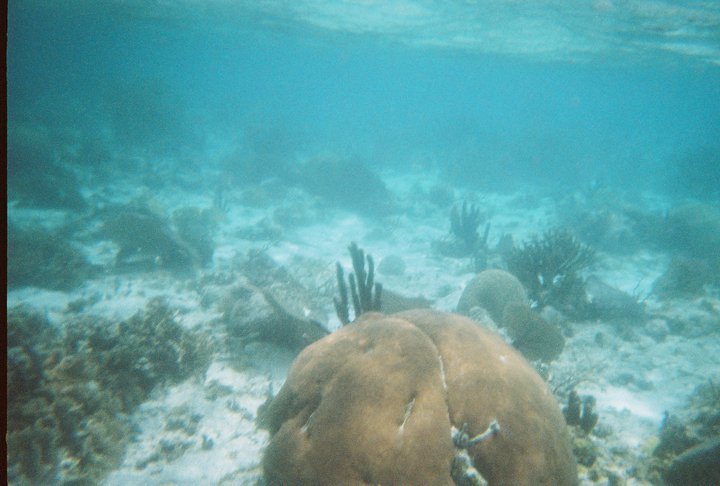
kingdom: Animalia
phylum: Cnidaria
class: Anthozoa
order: Scleractinia
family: Rhizangiidae
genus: Siderastrea
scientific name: Siderastrea siderea
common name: Massive starlet coral
